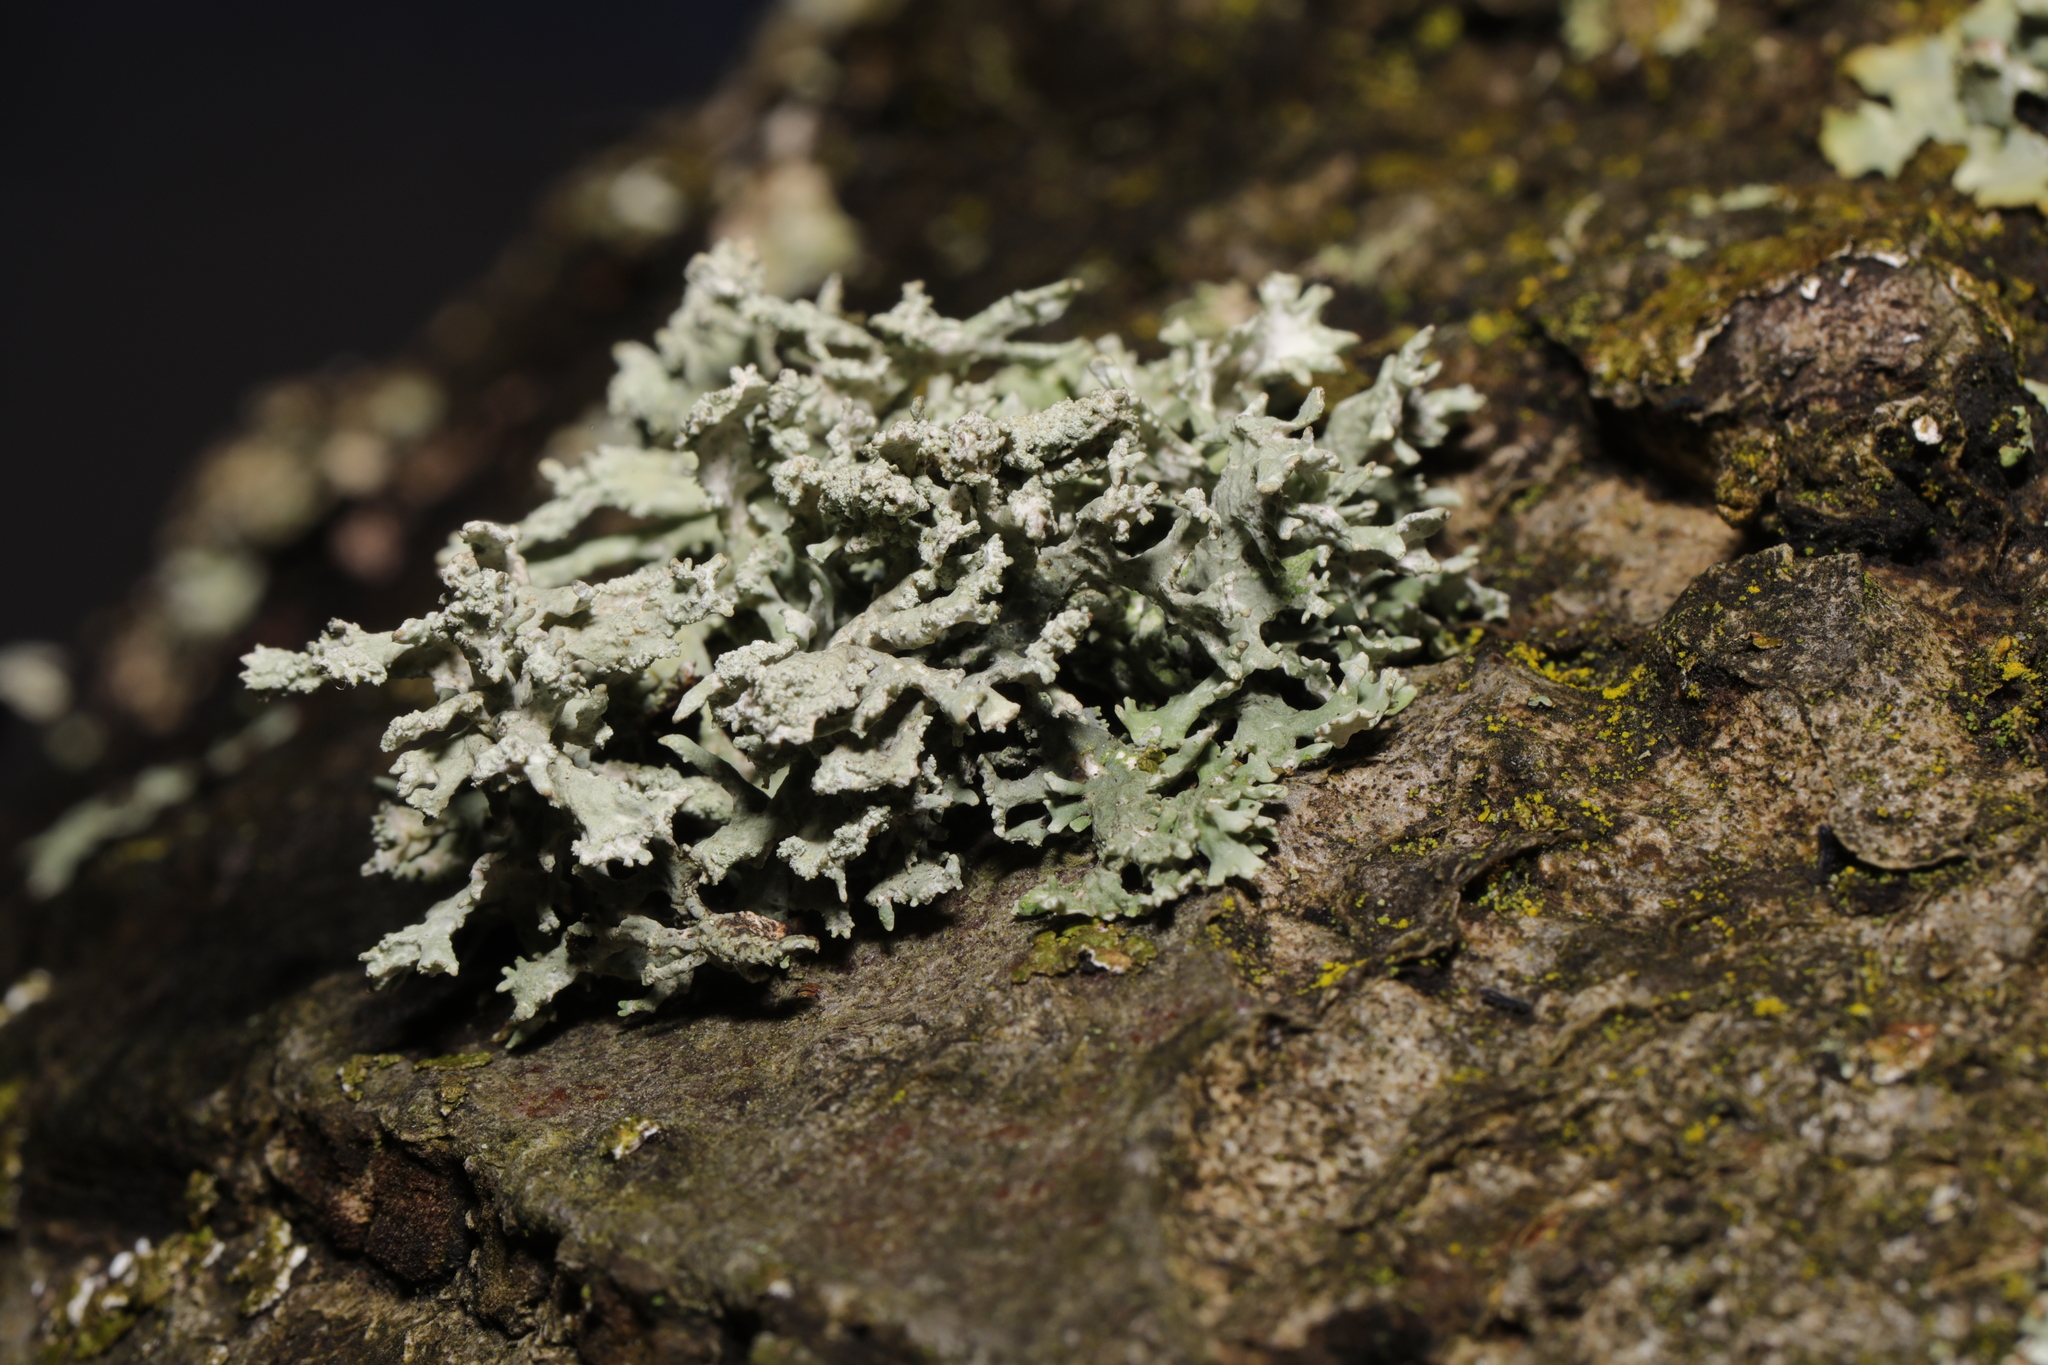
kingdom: Fungi
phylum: Ascomycota
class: Lecanoromycetes
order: Lecanorales
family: Parmeliaceae
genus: Evernia
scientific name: Evernia prunastri
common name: Oak moss
